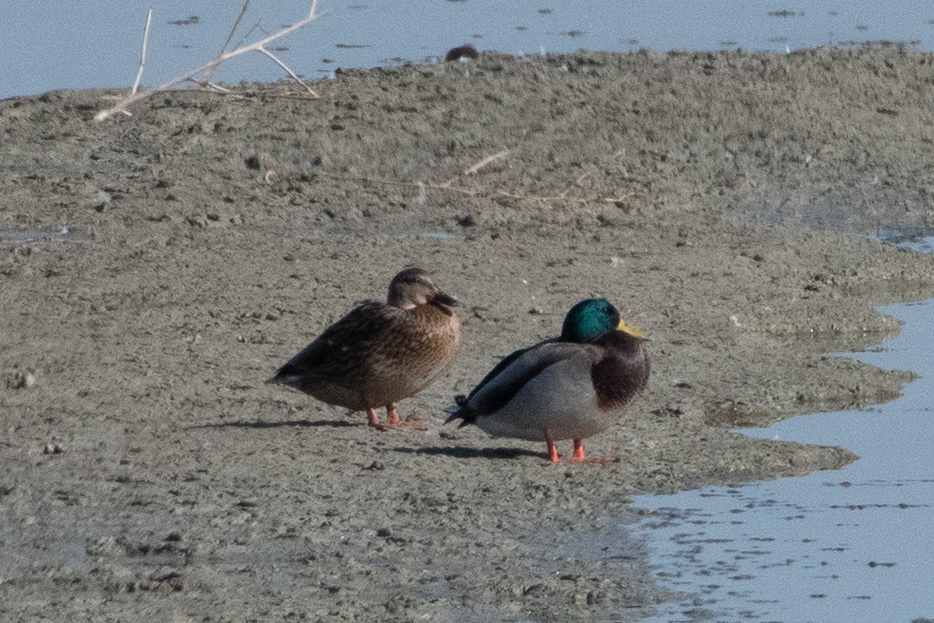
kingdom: Animalia
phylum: Chordata
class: Aves
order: Anseriformes
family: Anatidae
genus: Anas
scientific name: Anas platyrhynchos
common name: Mallard
